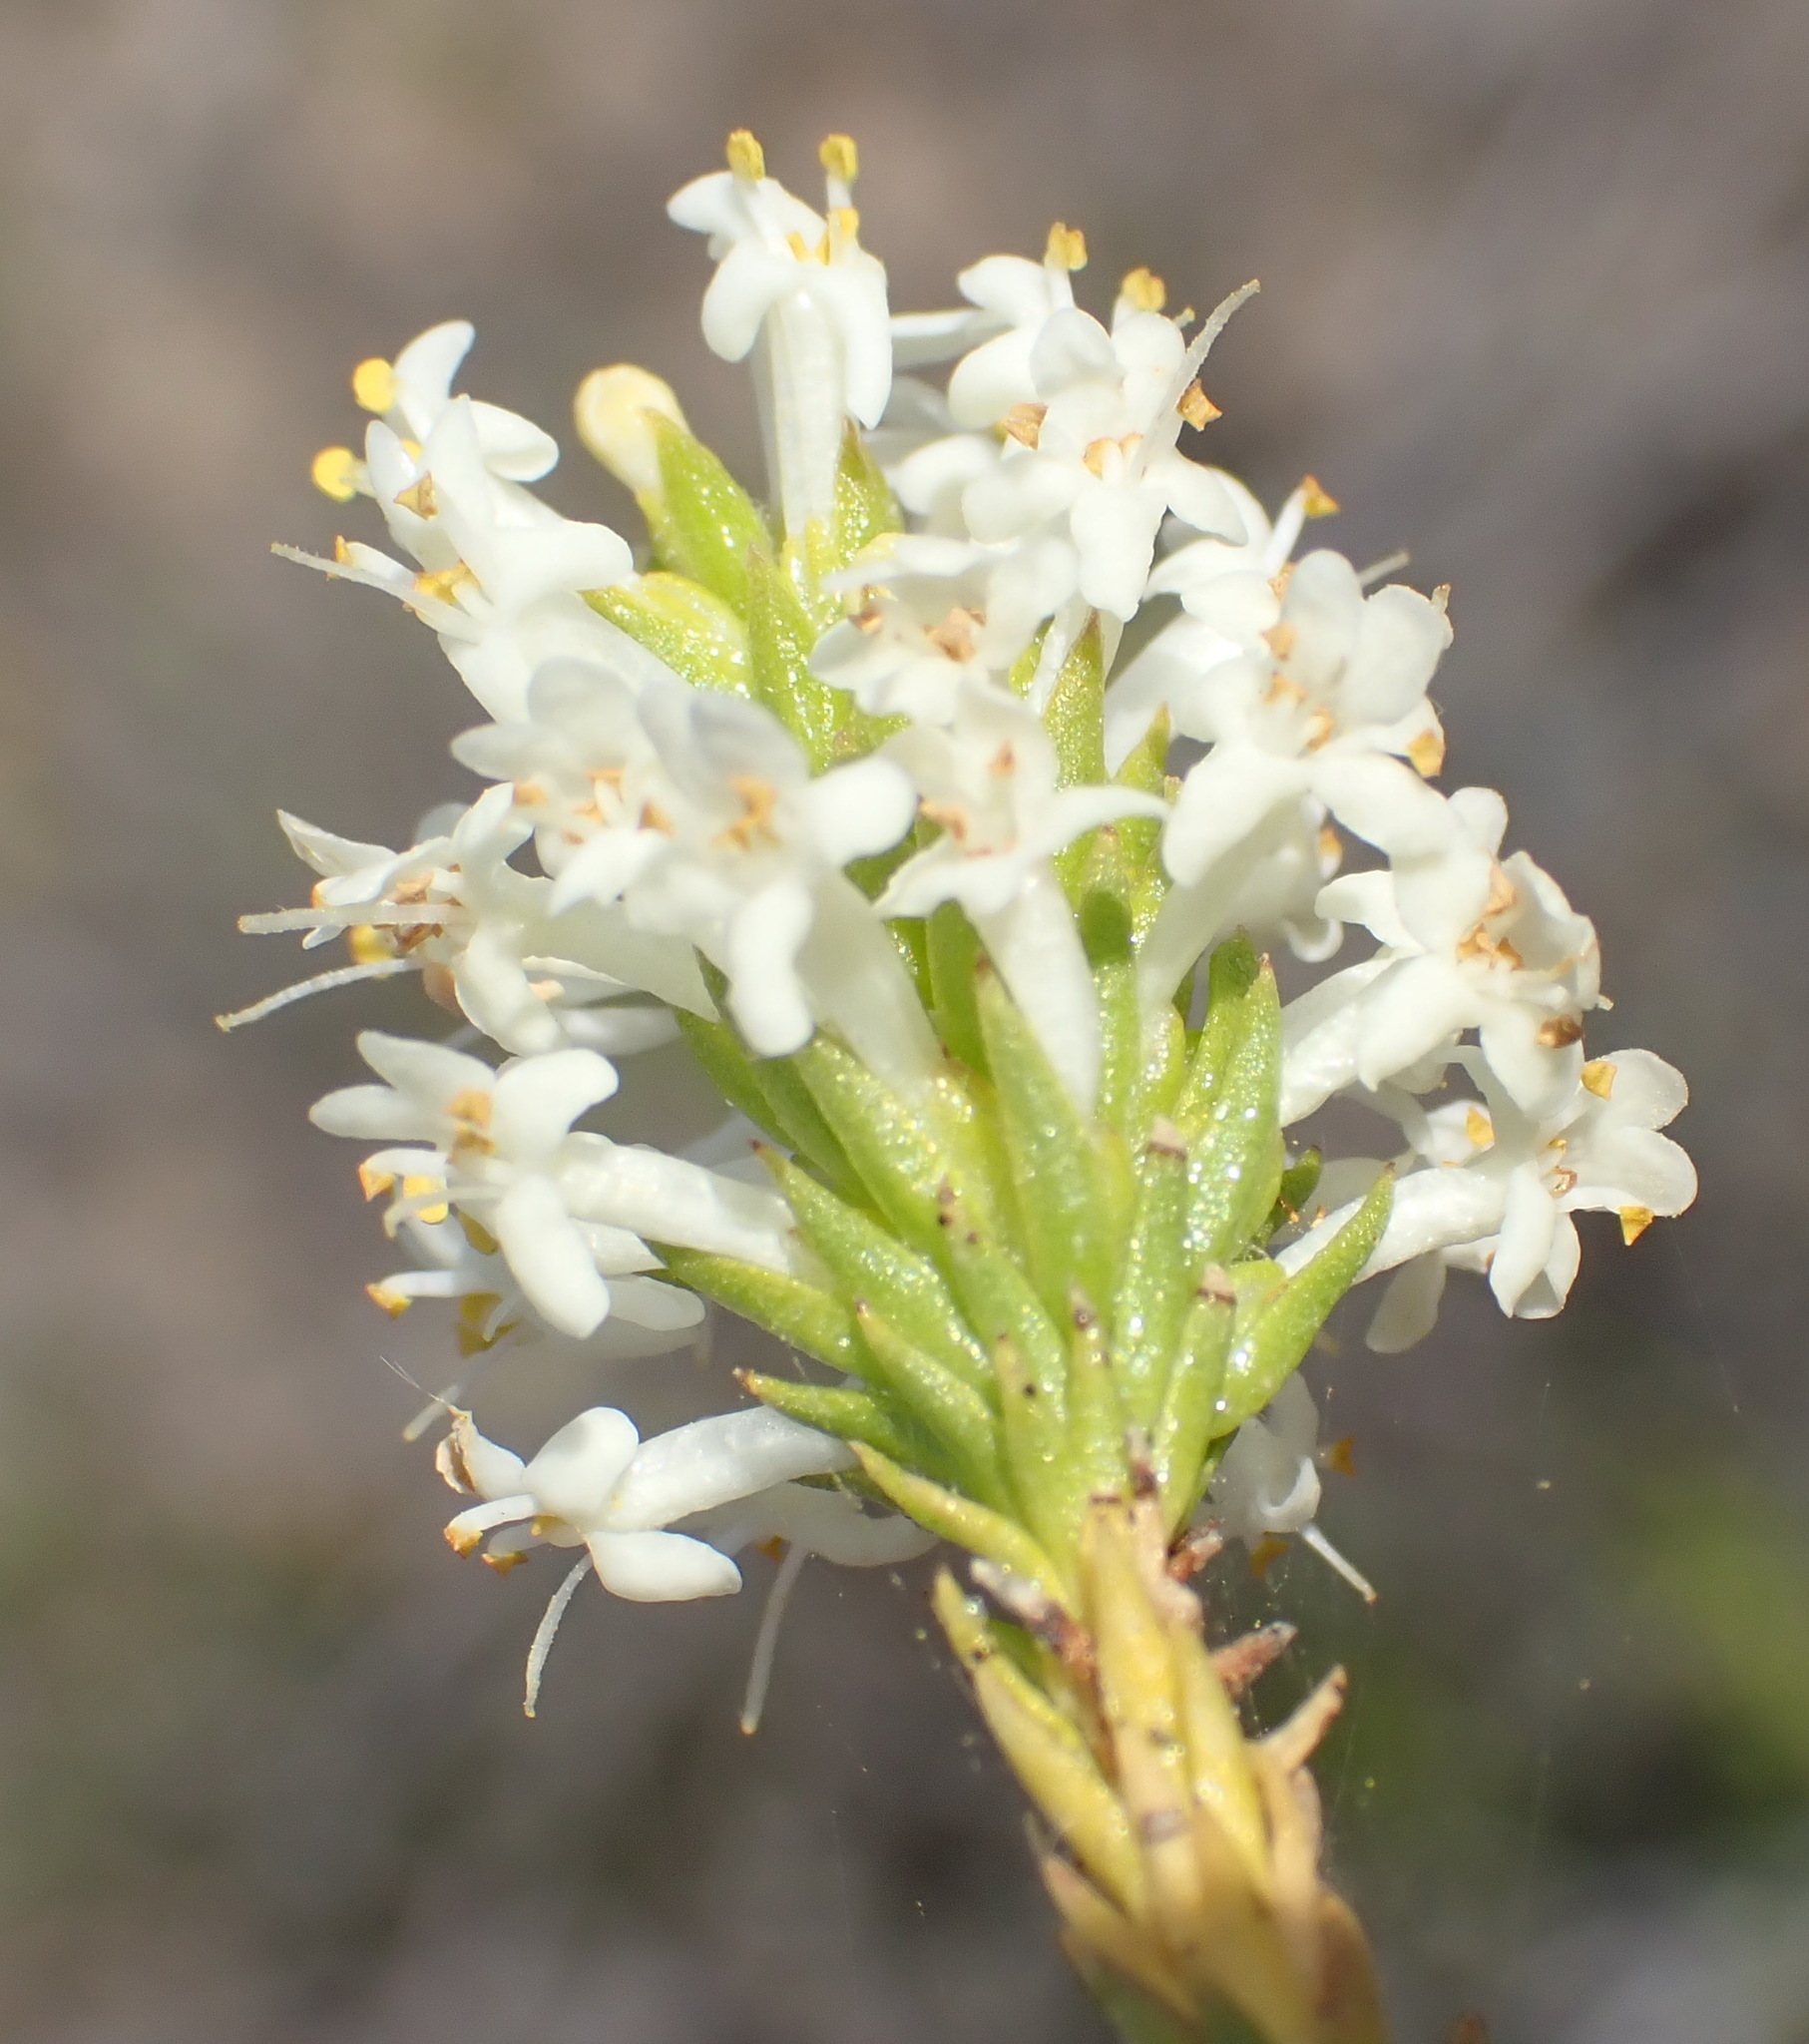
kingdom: Plantae
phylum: Tracheophyta
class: Magnoliopsida
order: Lamiales
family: Scrophulariaceae
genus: Selago
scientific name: Selago eckloniana
